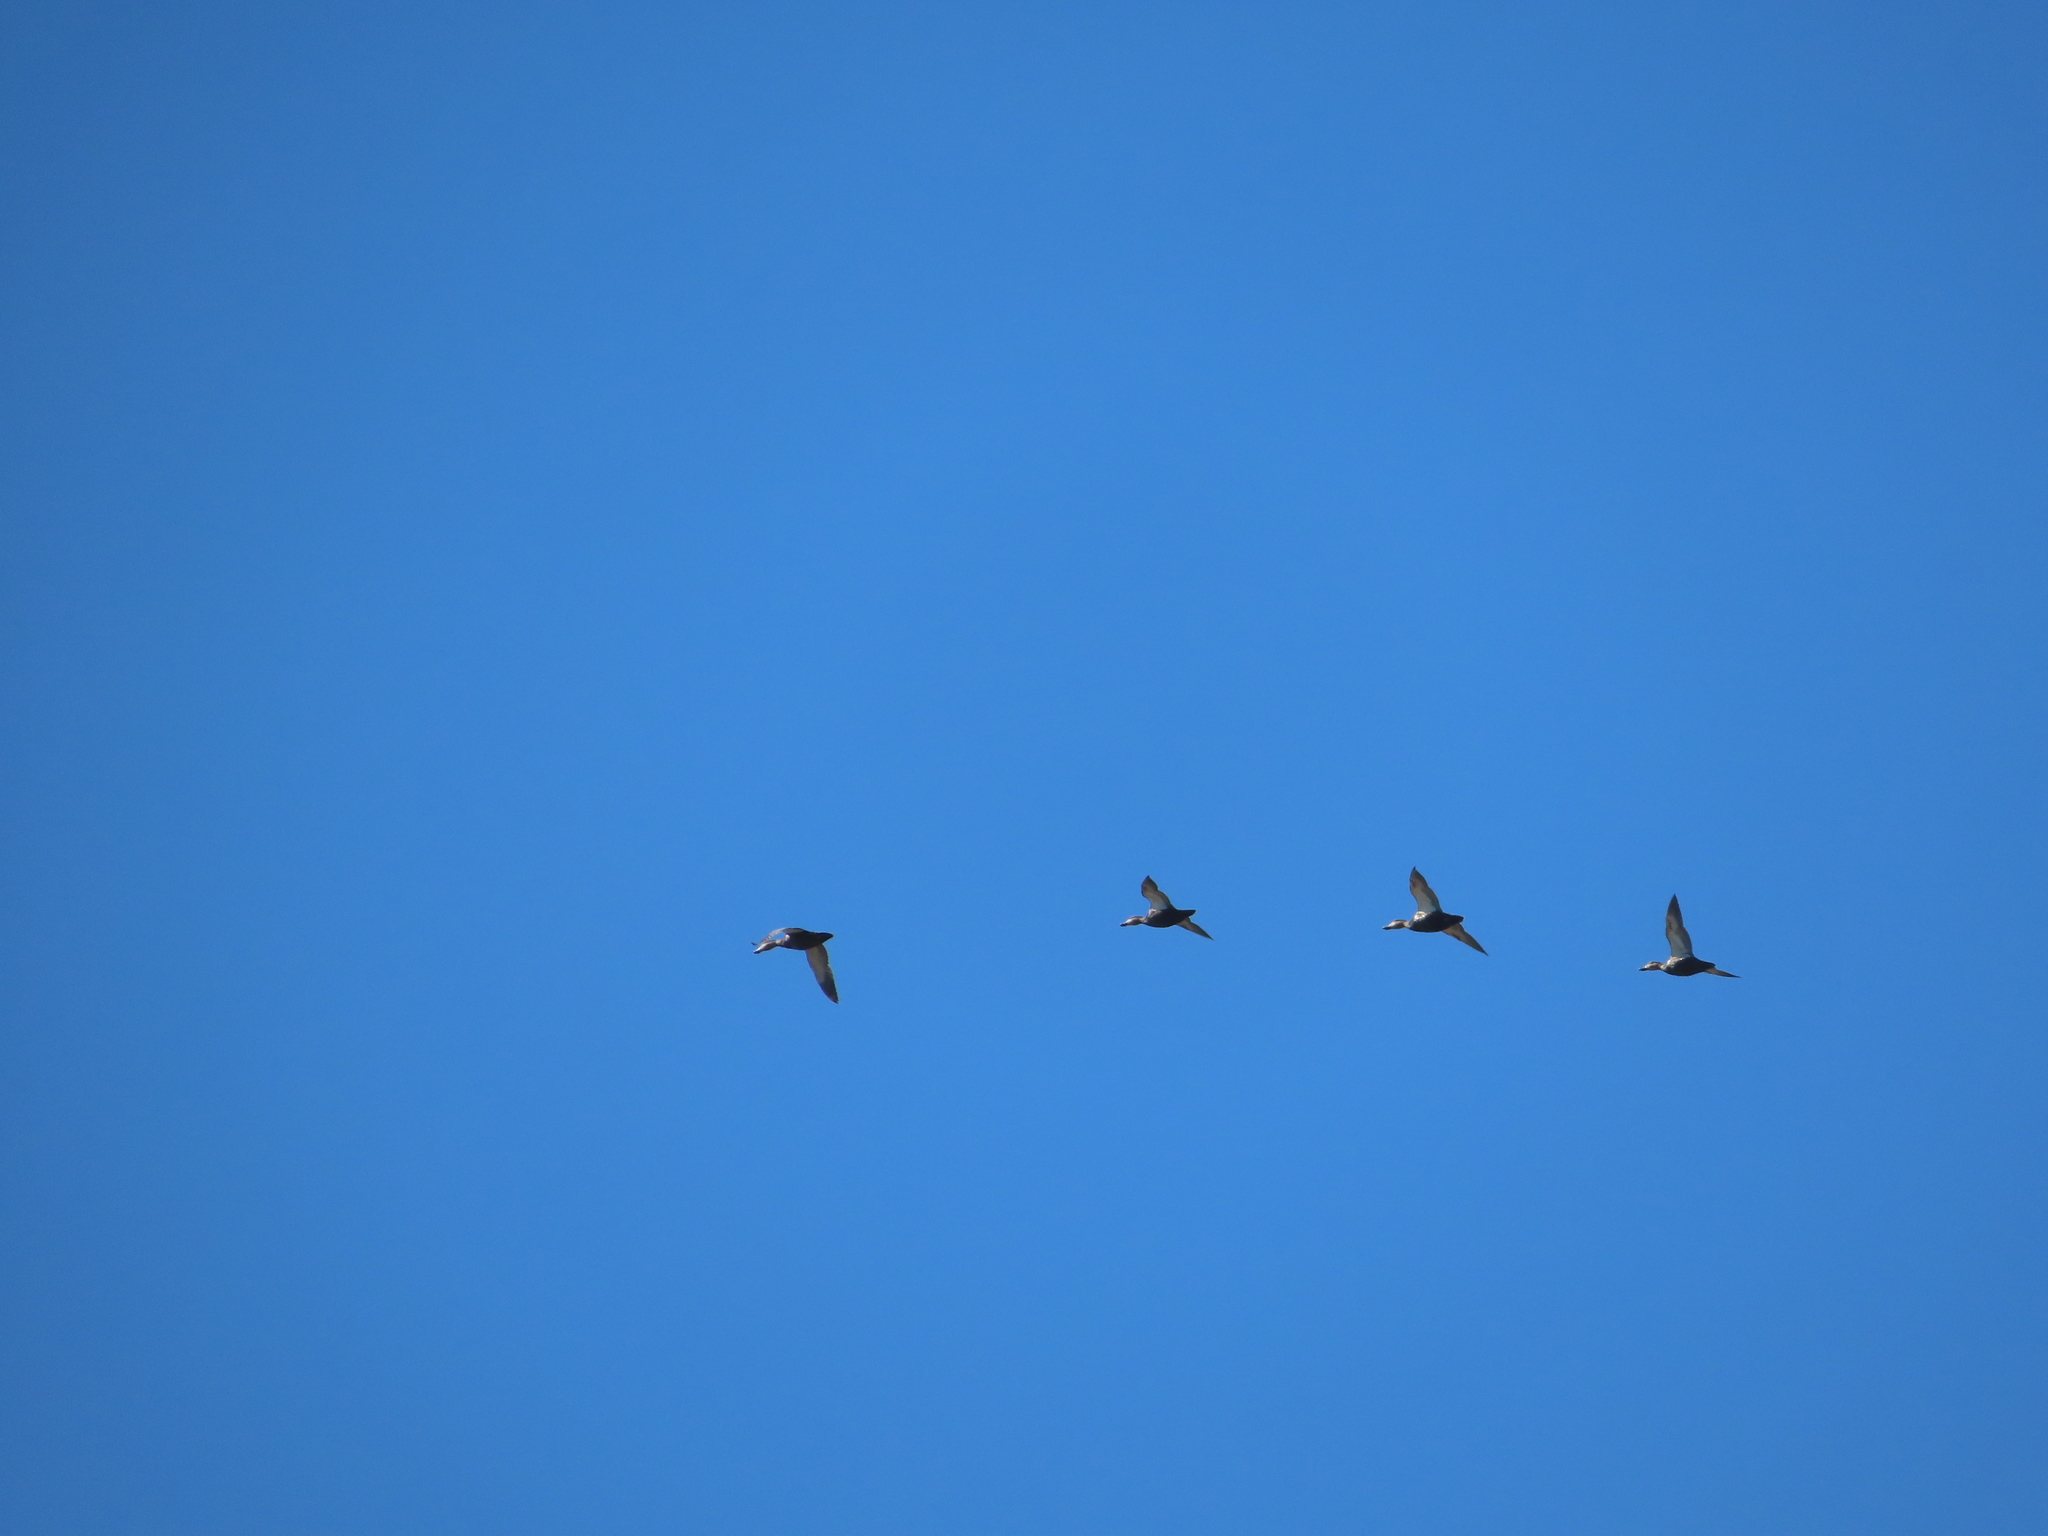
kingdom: Animalia
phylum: Chordata
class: Aves
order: Anseriformes
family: Anatidae
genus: Anas
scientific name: Anas rubripes
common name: American black duck
